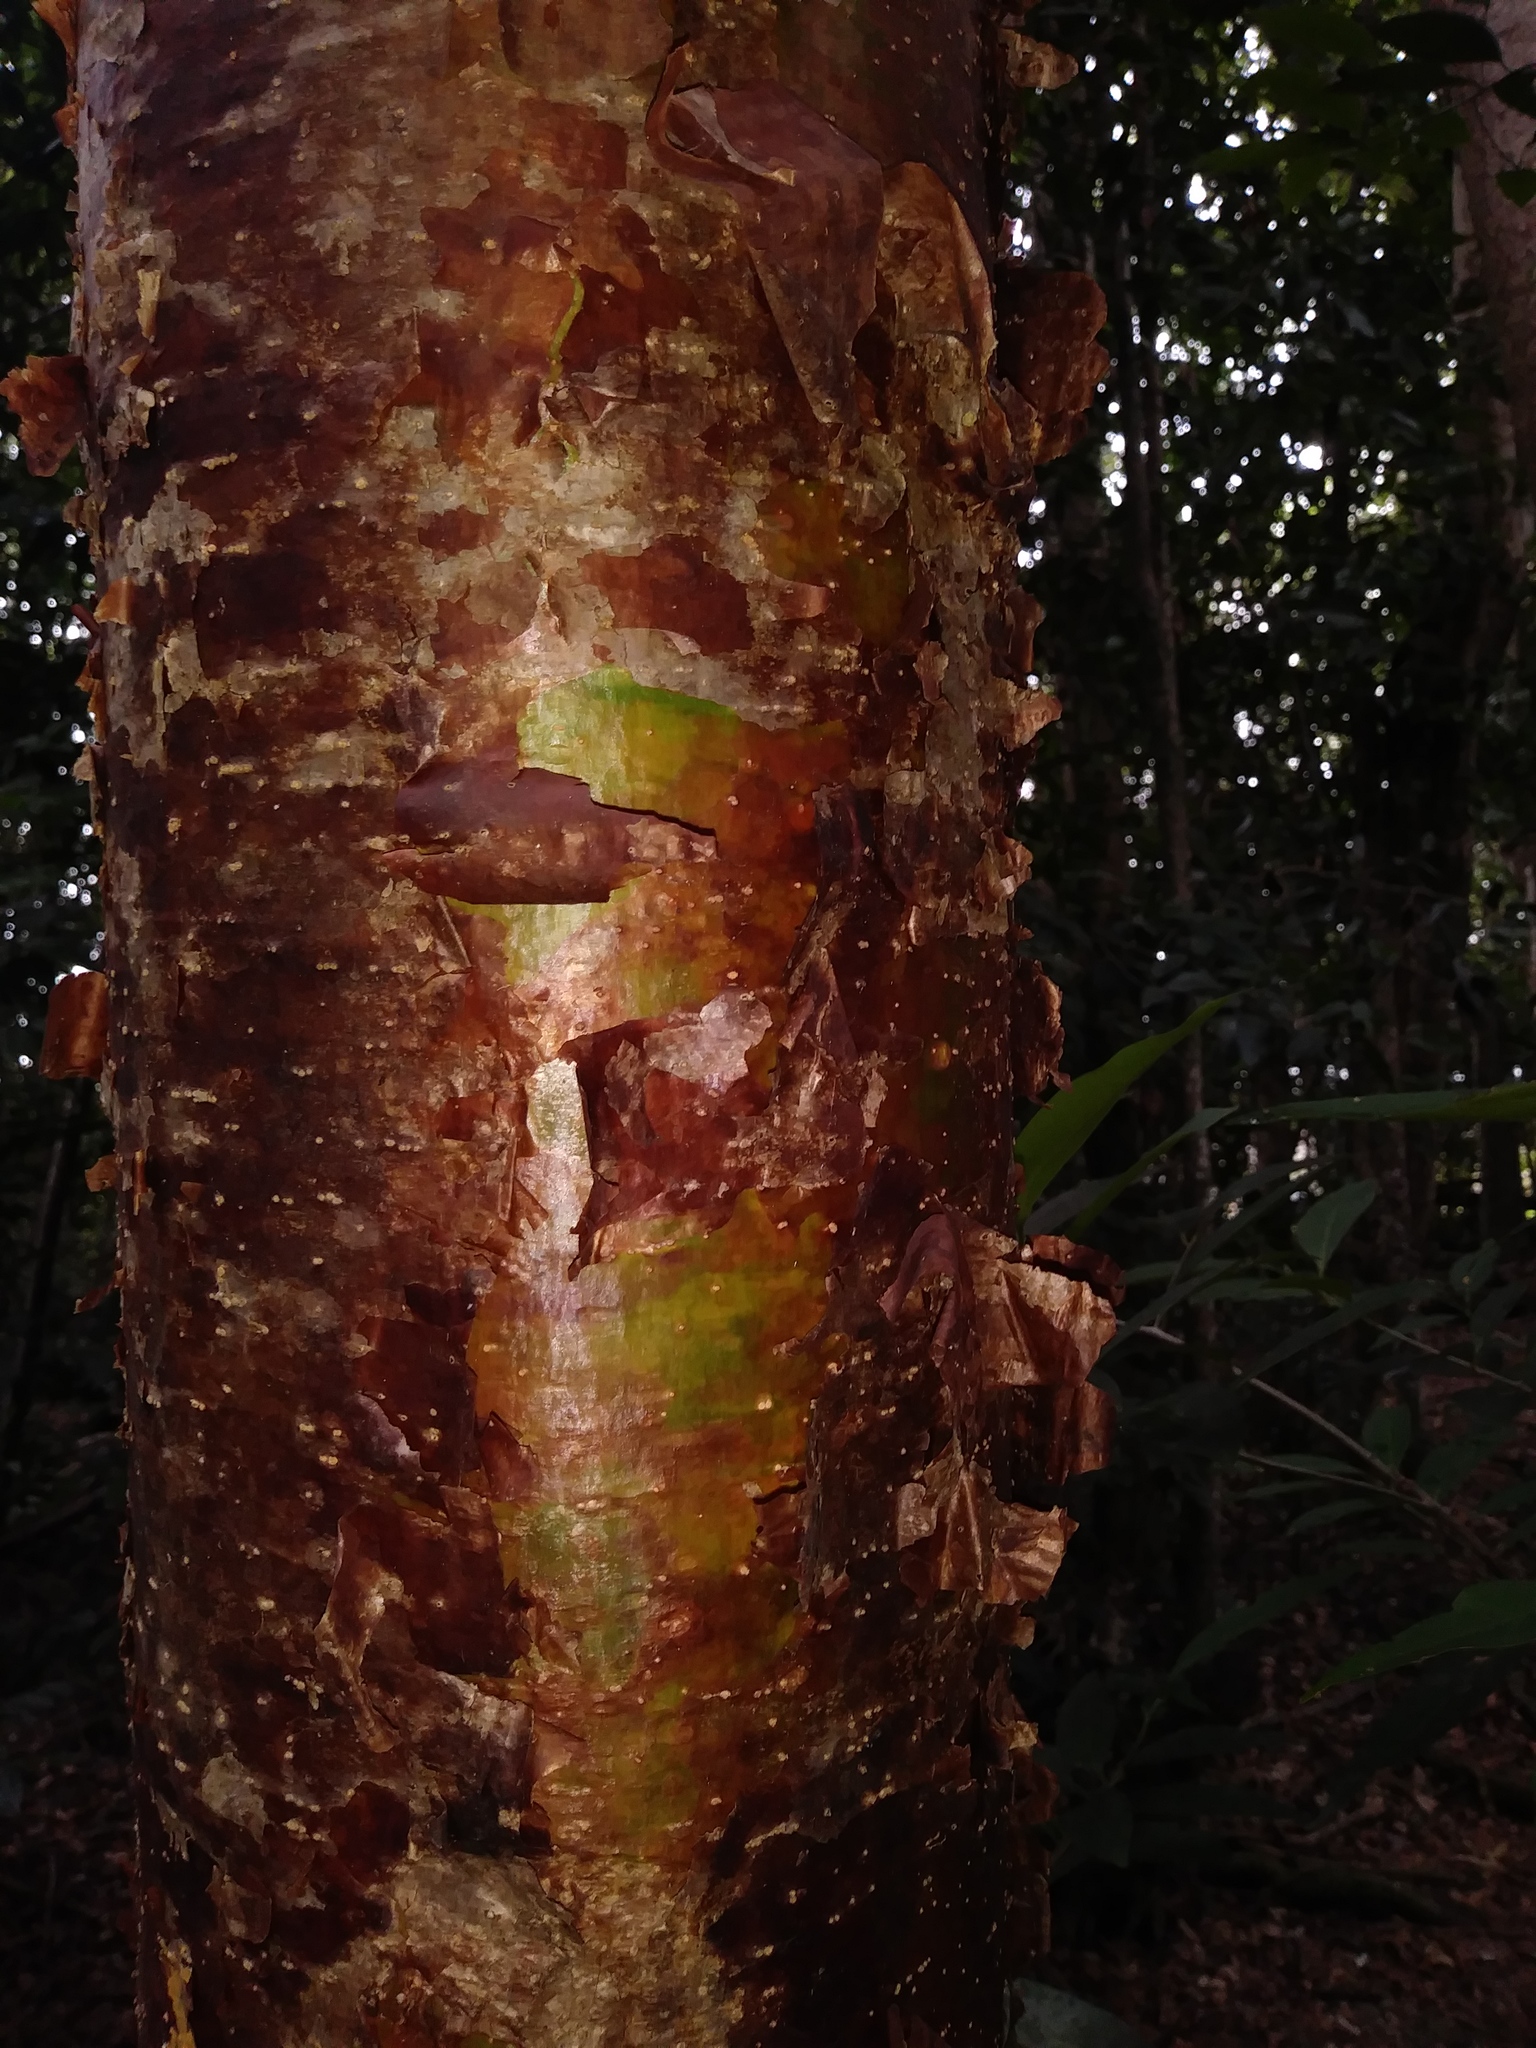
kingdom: Plantae
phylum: Tracheophyta
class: Magnoliopsida
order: Sapindales
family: Burseraceae
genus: Bursera
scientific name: Bursera simaruba
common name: Turpentine tree
